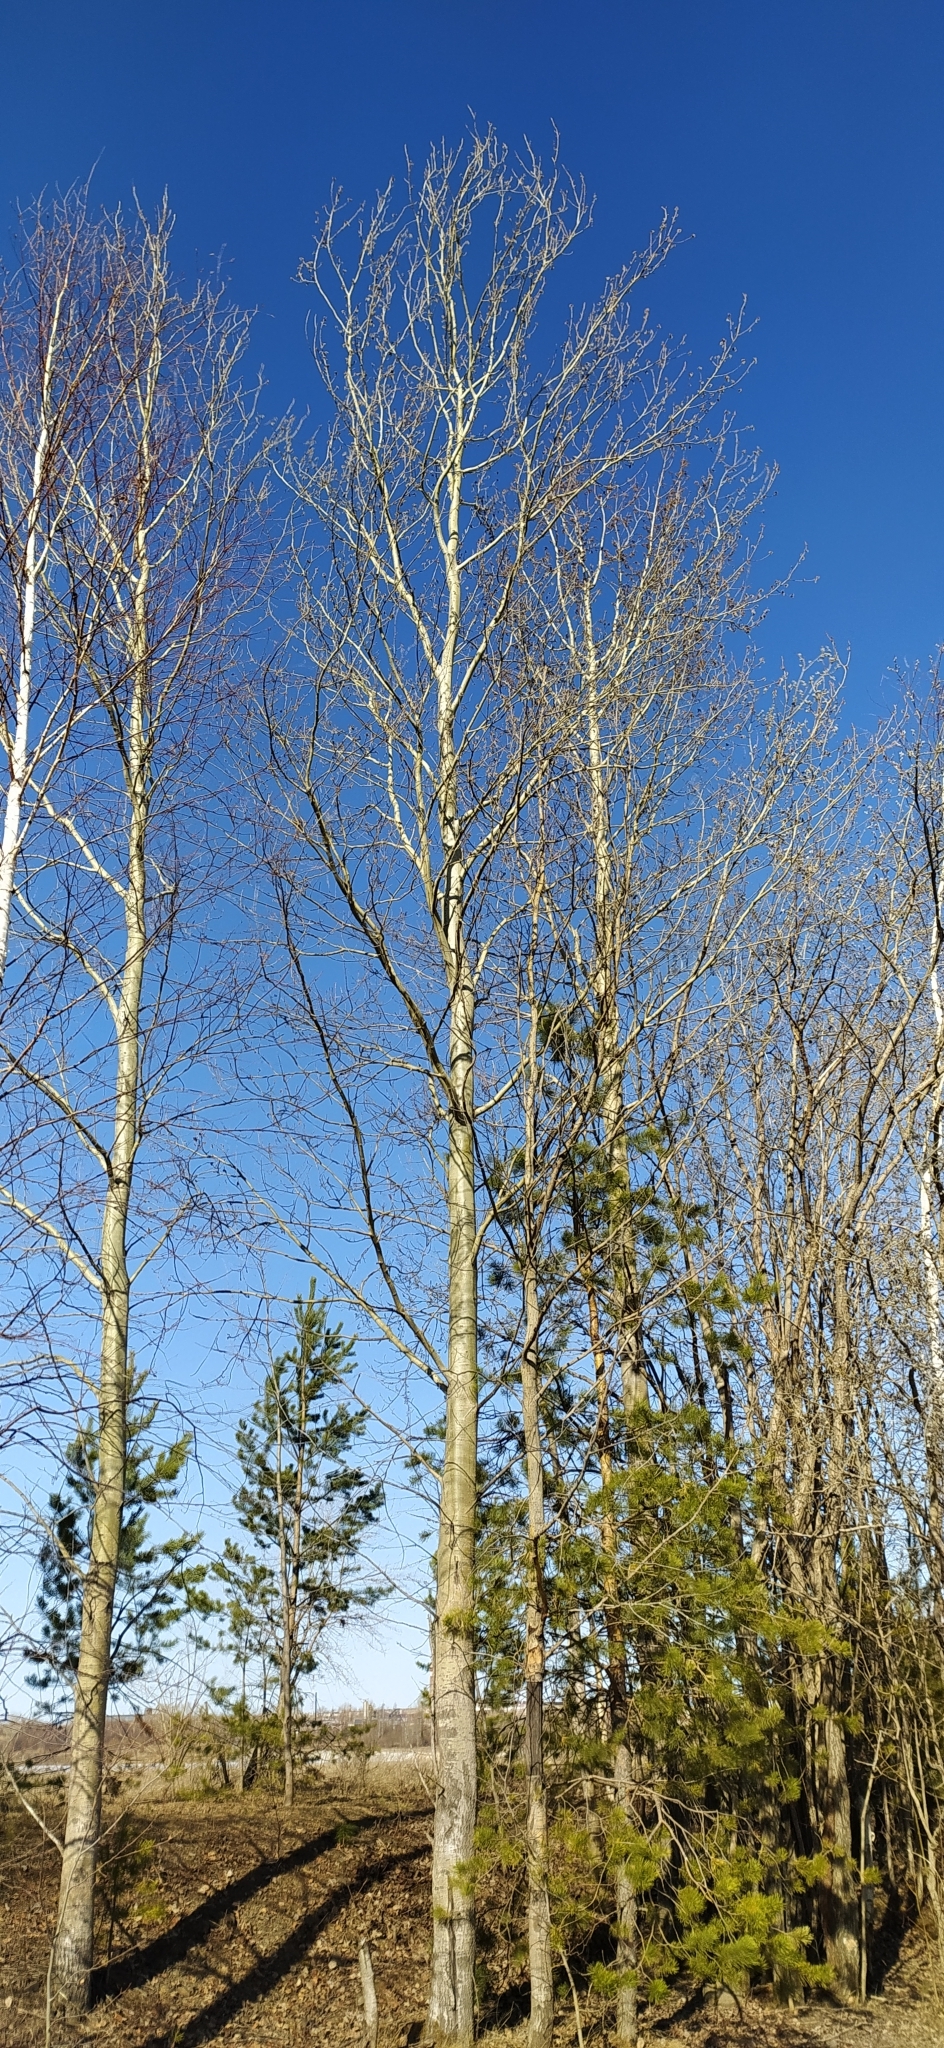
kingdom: Plantae
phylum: Tracheophyta
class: Magnoliopsida
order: Malpighiales
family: Salicaceae
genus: Populus
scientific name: Populus tremula
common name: European aspen
